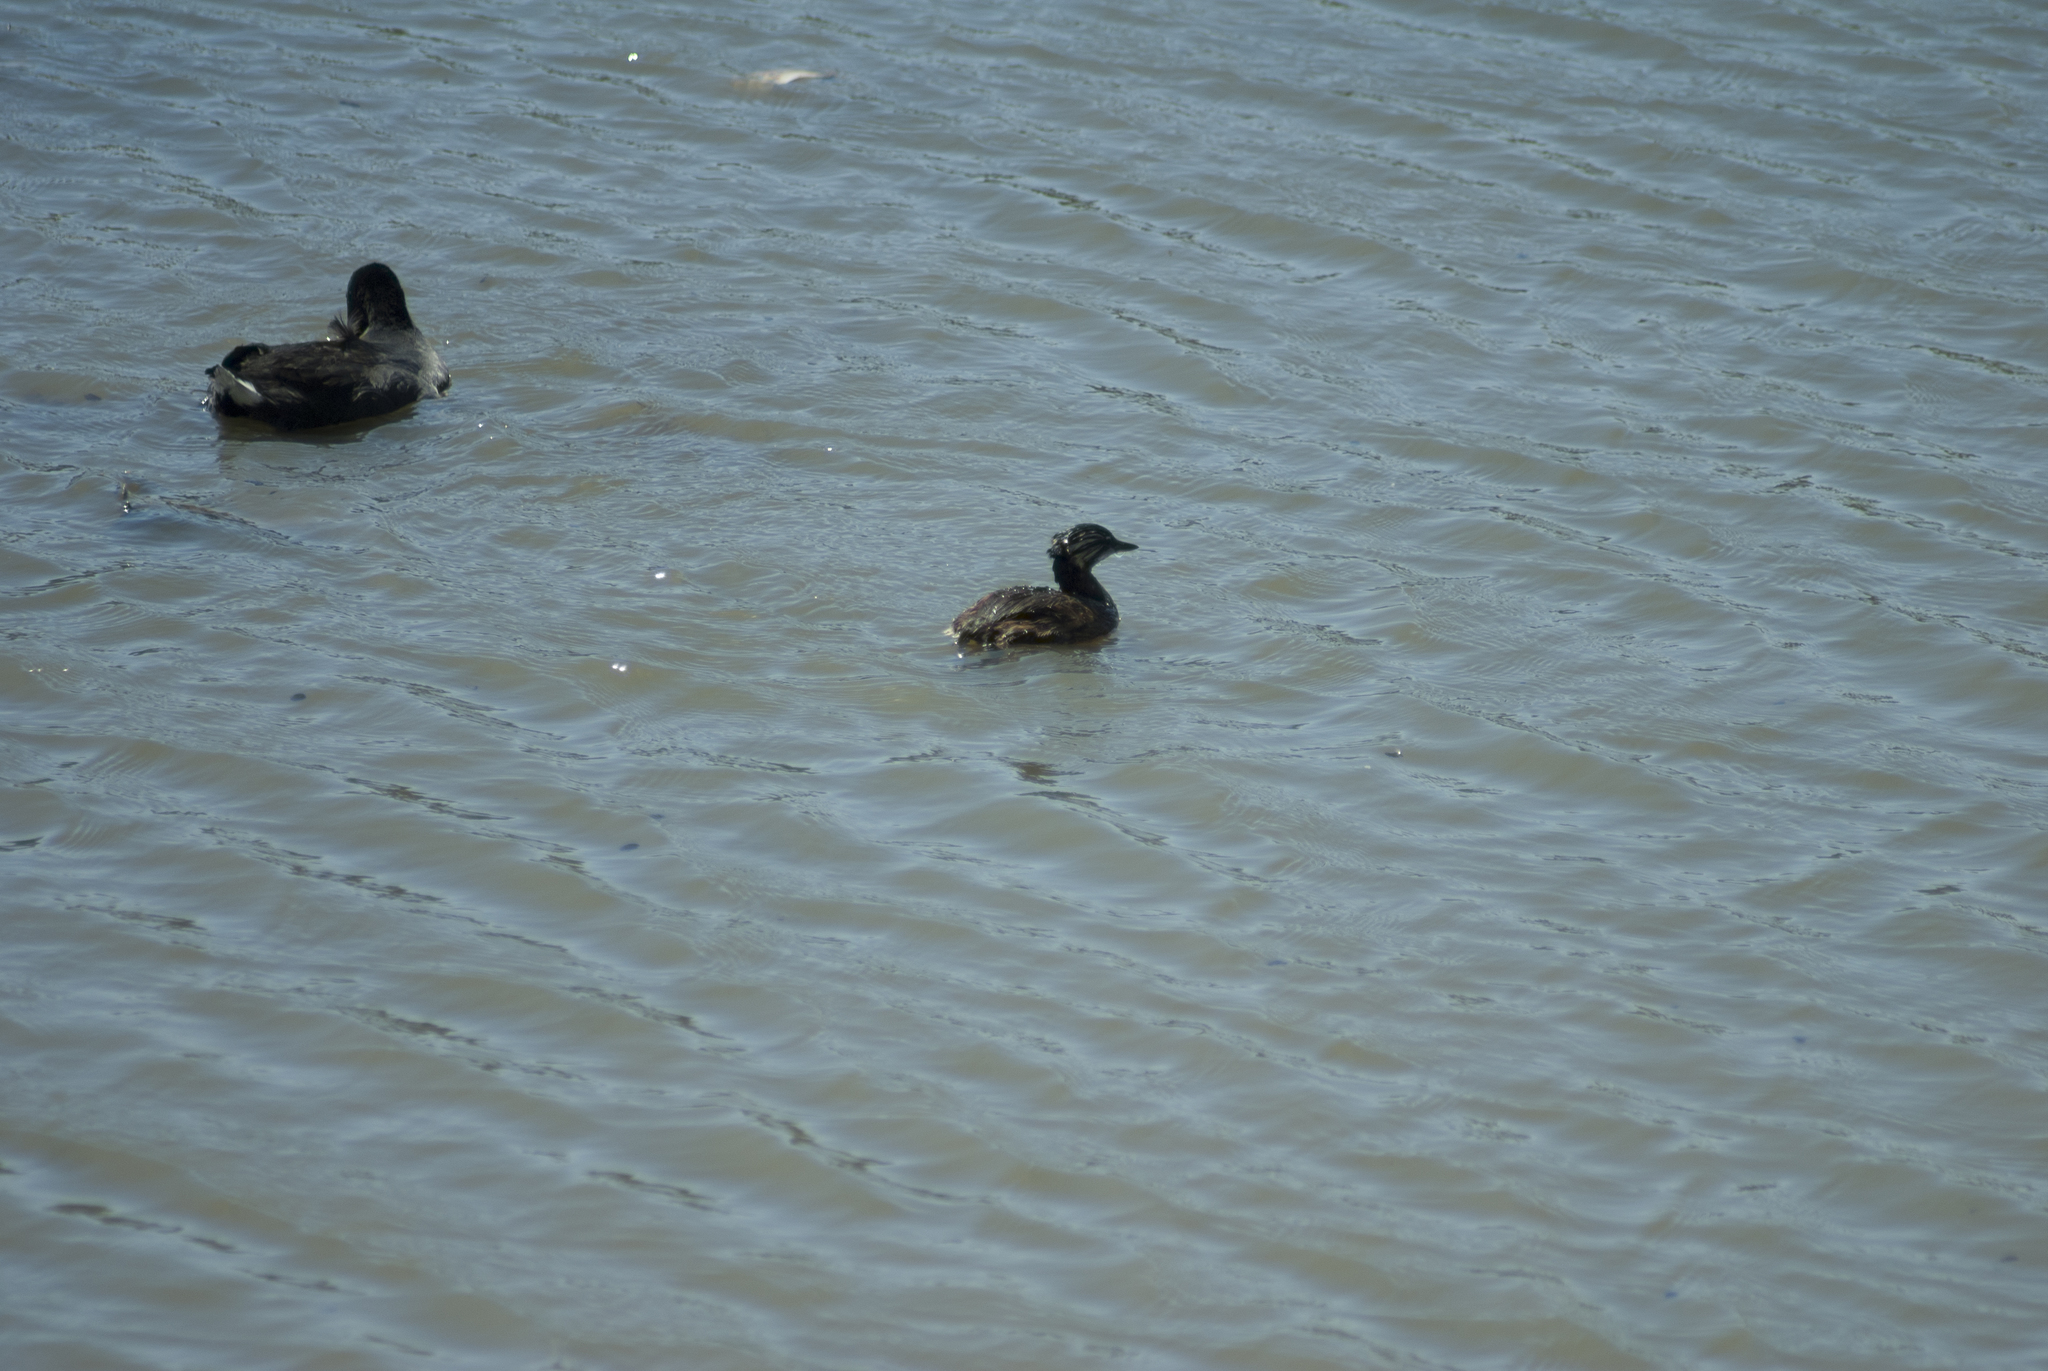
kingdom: Animalia
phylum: Chordata
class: Aves
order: Podicipediformes
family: Podicipedidae
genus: Rollandia
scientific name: Rollandia rolland
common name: White-tufted grebe
